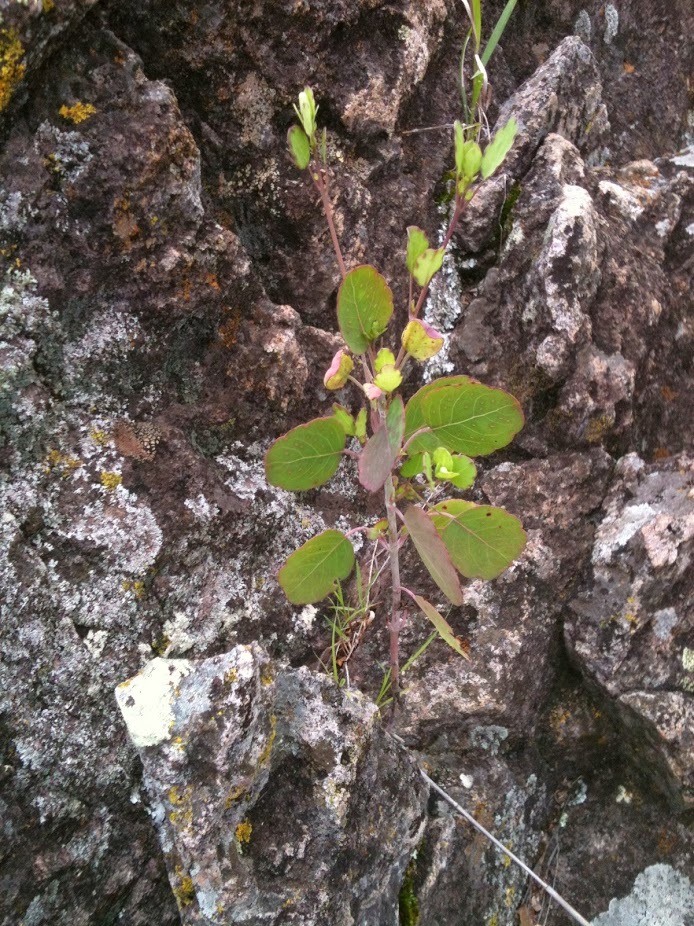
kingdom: Plantae
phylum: Tracheophyta
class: Magnoliopsida
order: Asterales
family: Asteraceae
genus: Porophyllum
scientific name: Porophyllum ruderale
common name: Yerba porosa
